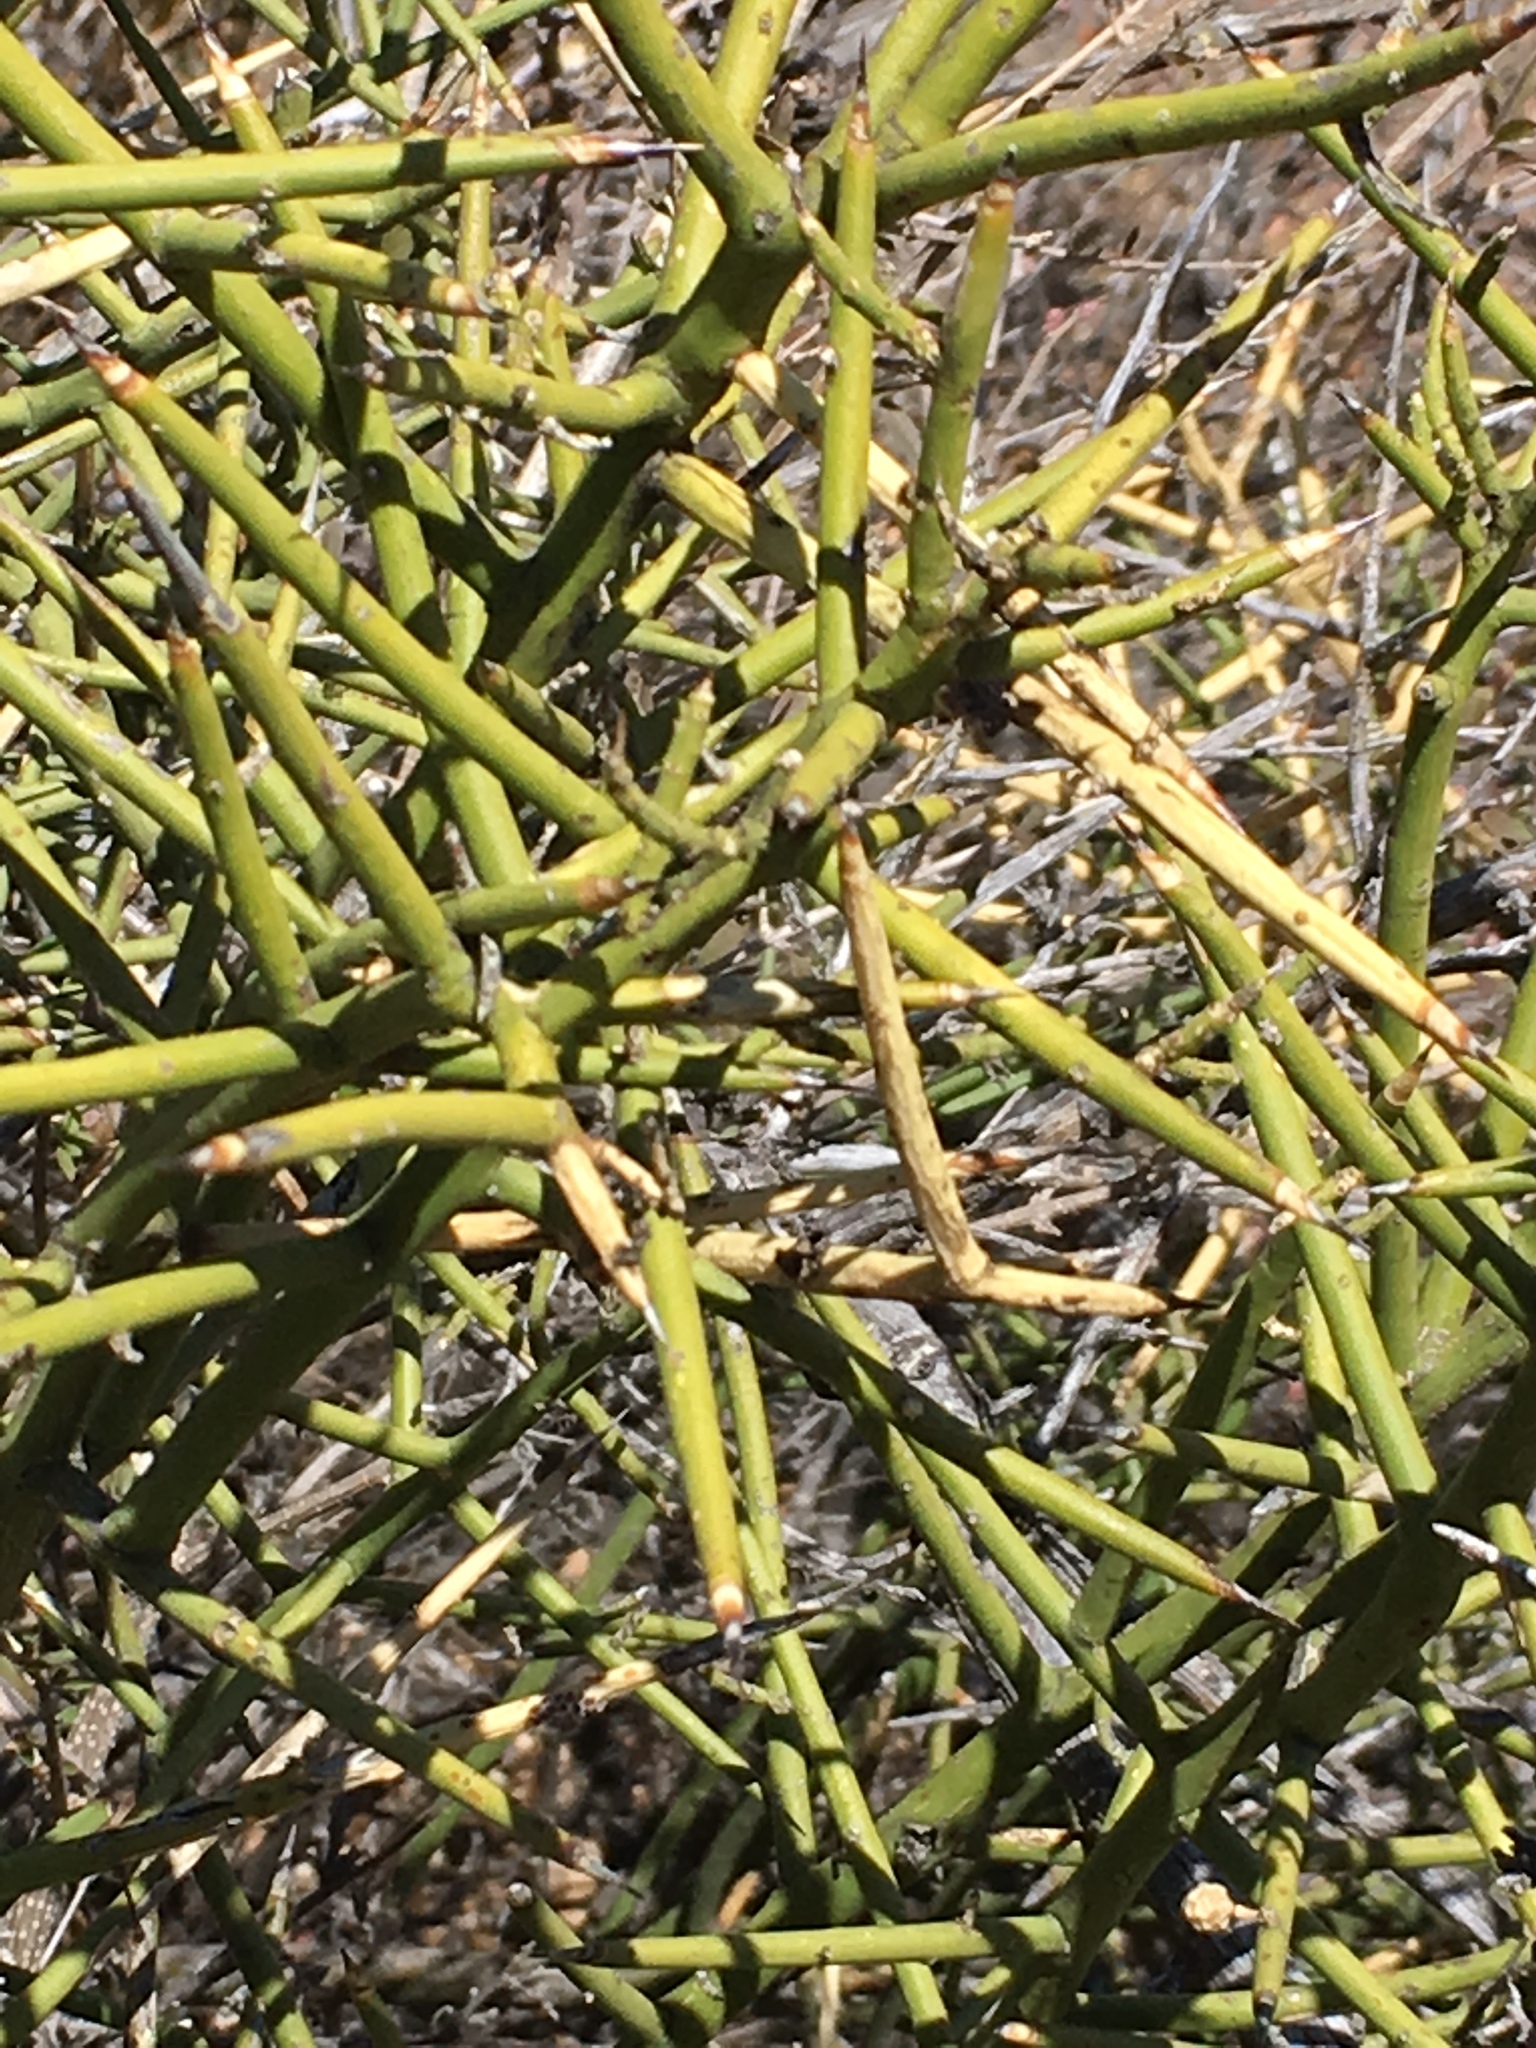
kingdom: Plantae
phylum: Tracheophyta
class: Magnoliopsida
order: Brassicales
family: Koeberliniaceae
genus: Koeberlinia
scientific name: Koeberlinia spinosa
